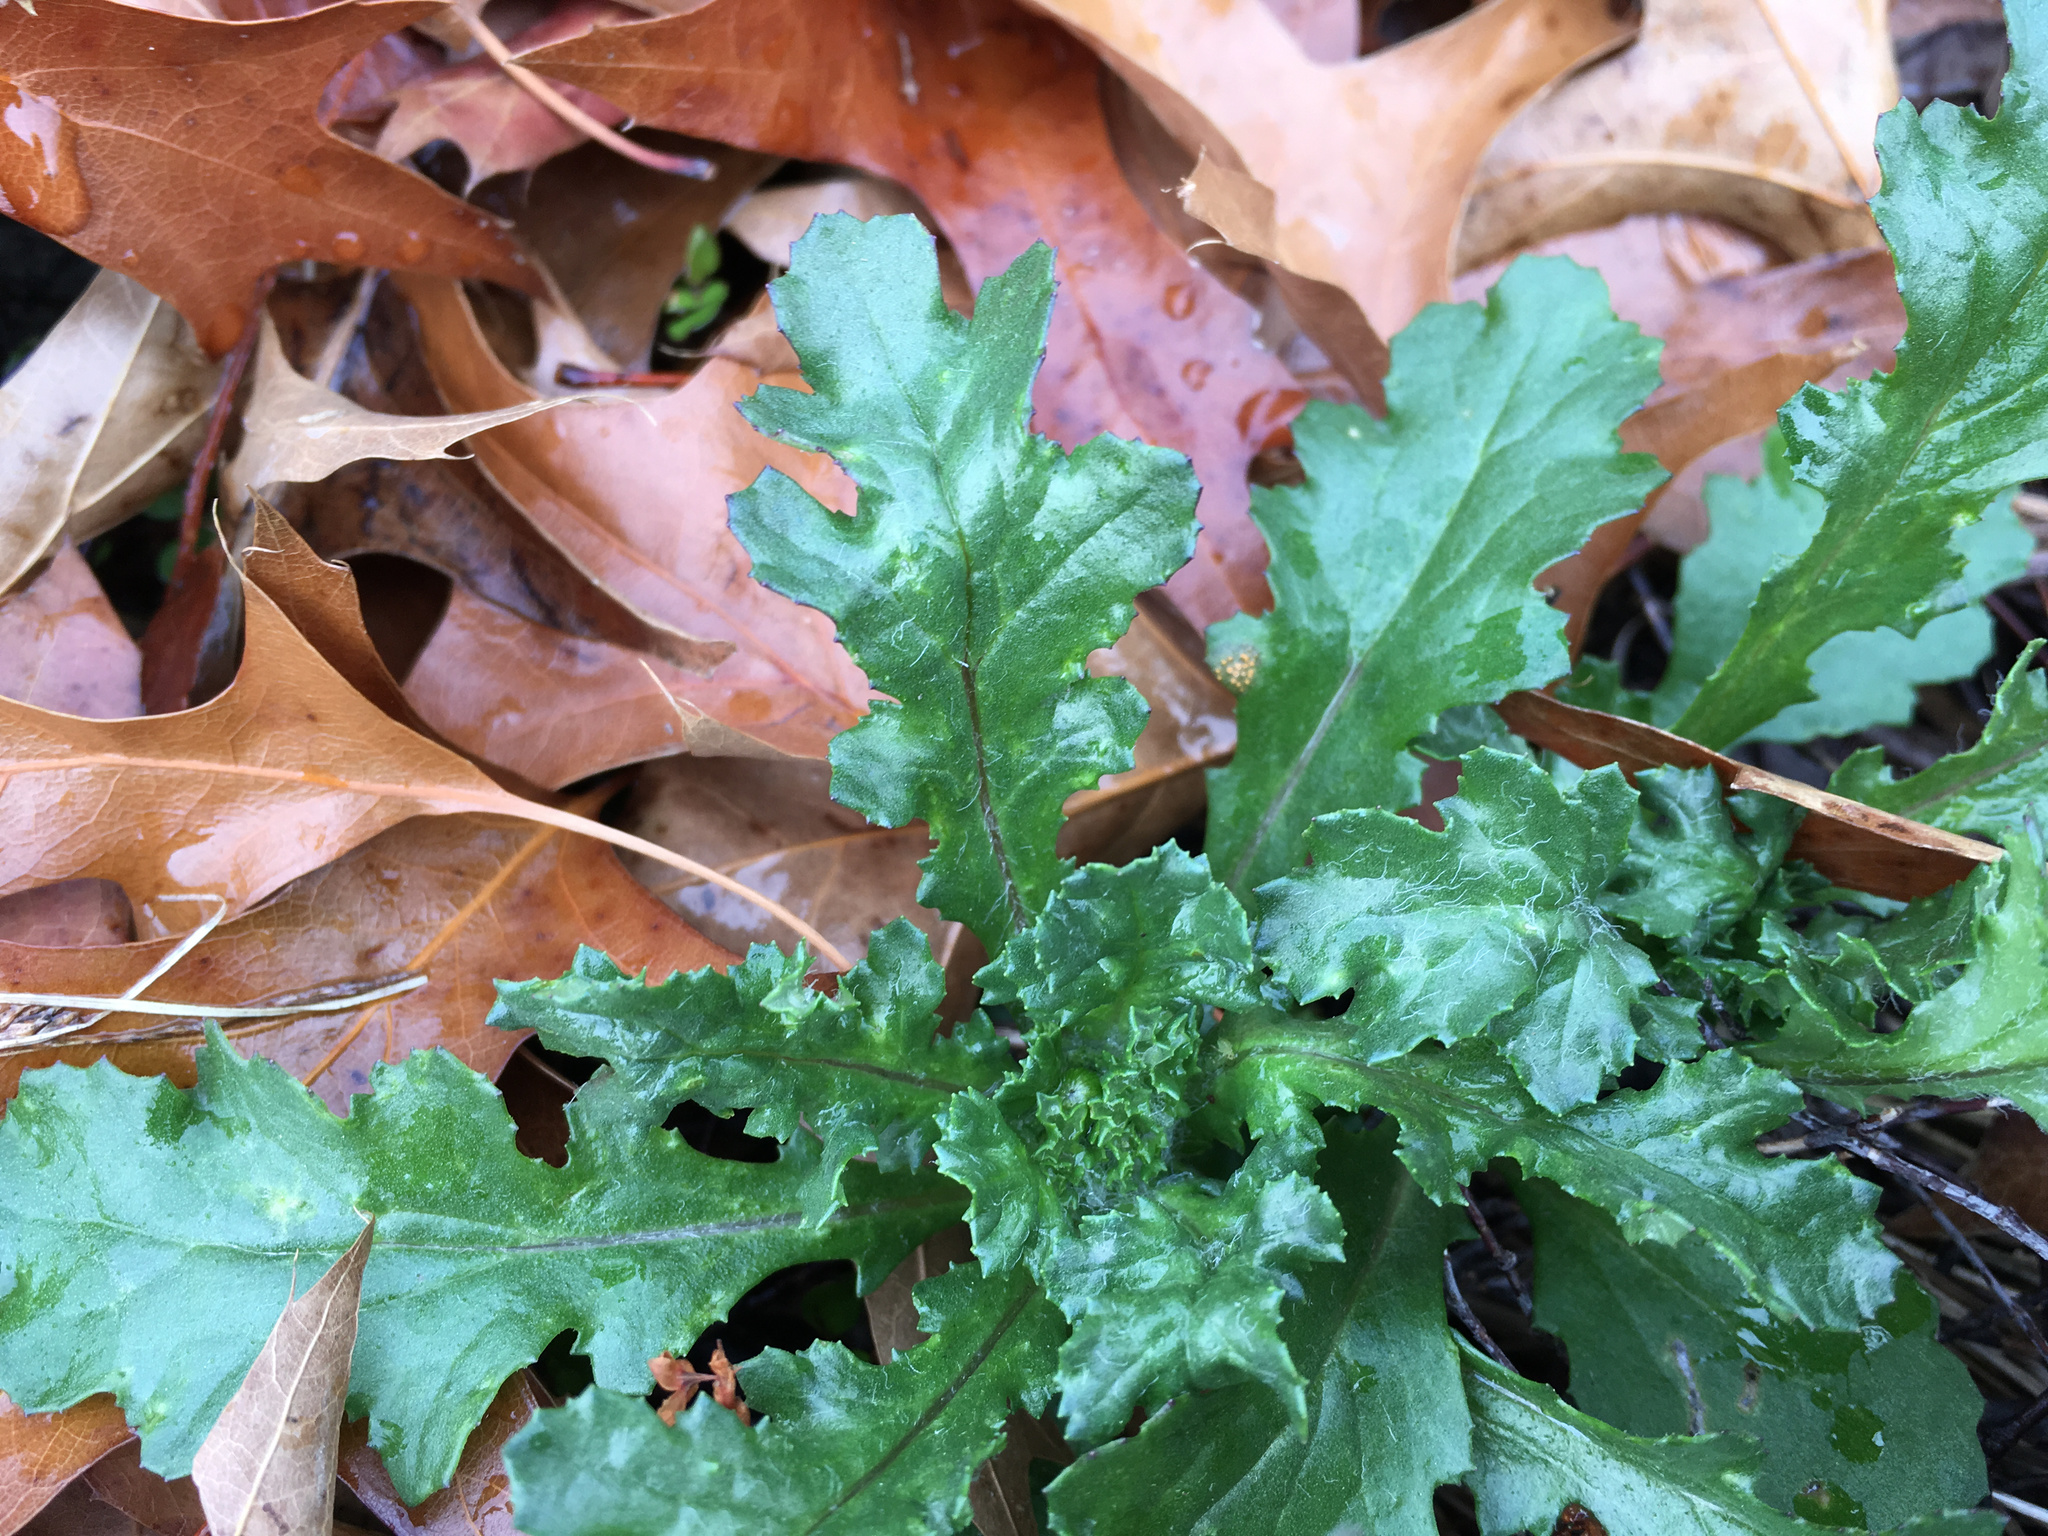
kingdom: Plantae
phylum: Tracheophyta
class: Magnoliopsida
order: Asterales
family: Asteraceae
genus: Senecio
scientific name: Senecio vulgaris
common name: Old-man-in-the-spring
